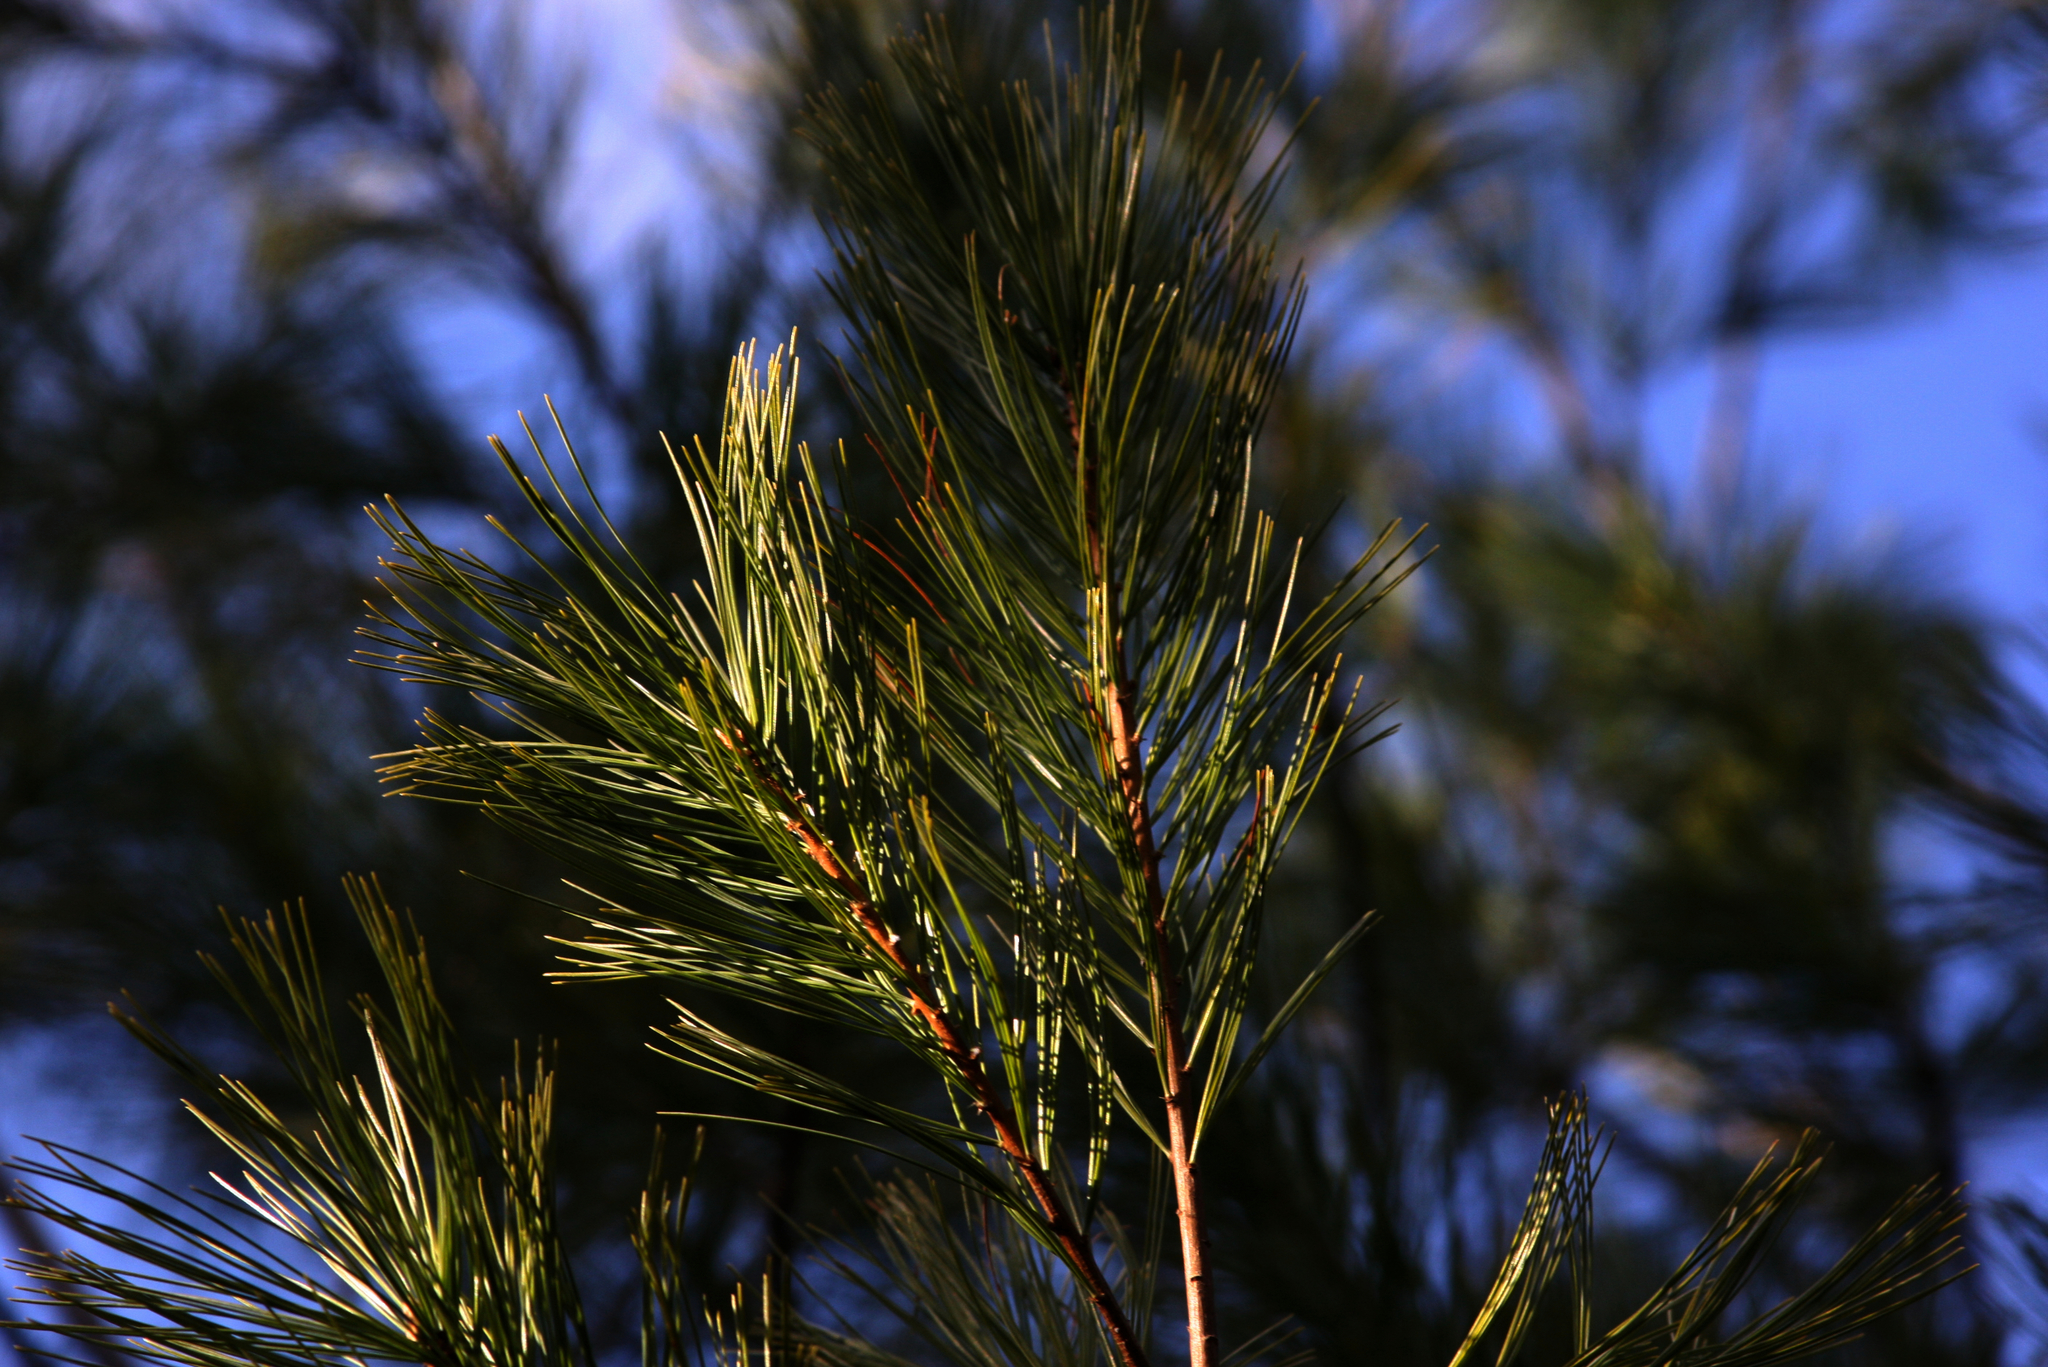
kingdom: Plantae
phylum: Tracheophyta
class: Pinopsida
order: Pinales
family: Pinaceae
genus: Pinus
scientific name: Pinus strobus
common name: Weymouth pine
